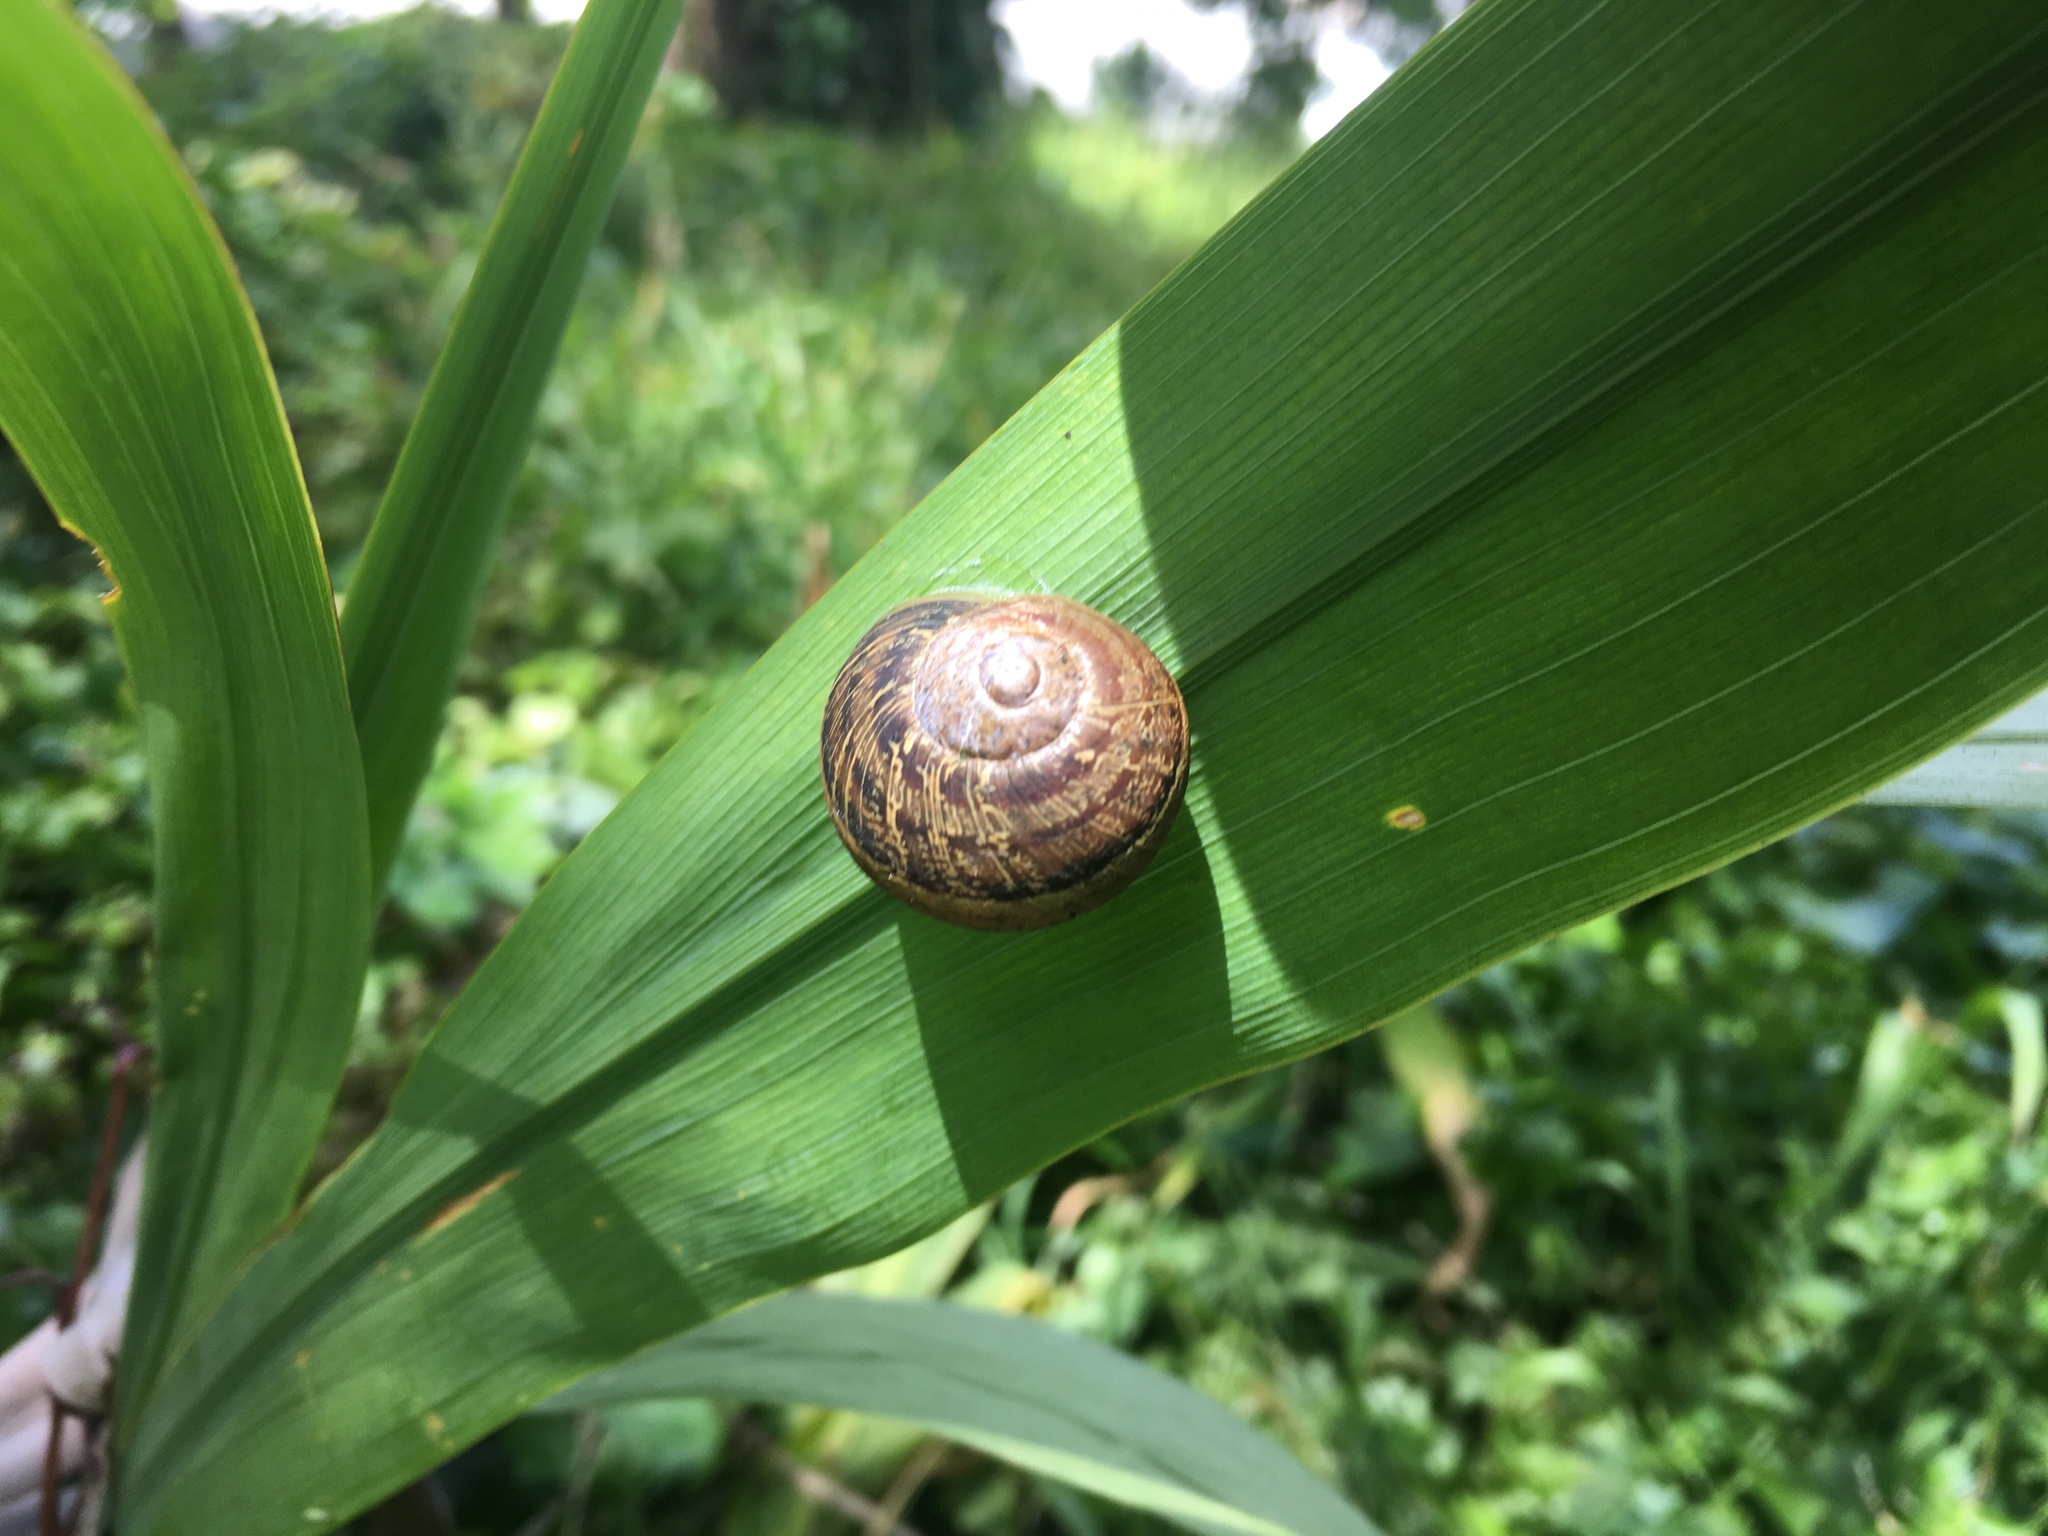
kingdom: Animalia
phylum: Mollusca
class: Gastropoda
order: Stylommatophora
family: Helicidae
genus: Cornu
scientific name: Cornu aspersum
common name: Brown garden snail
